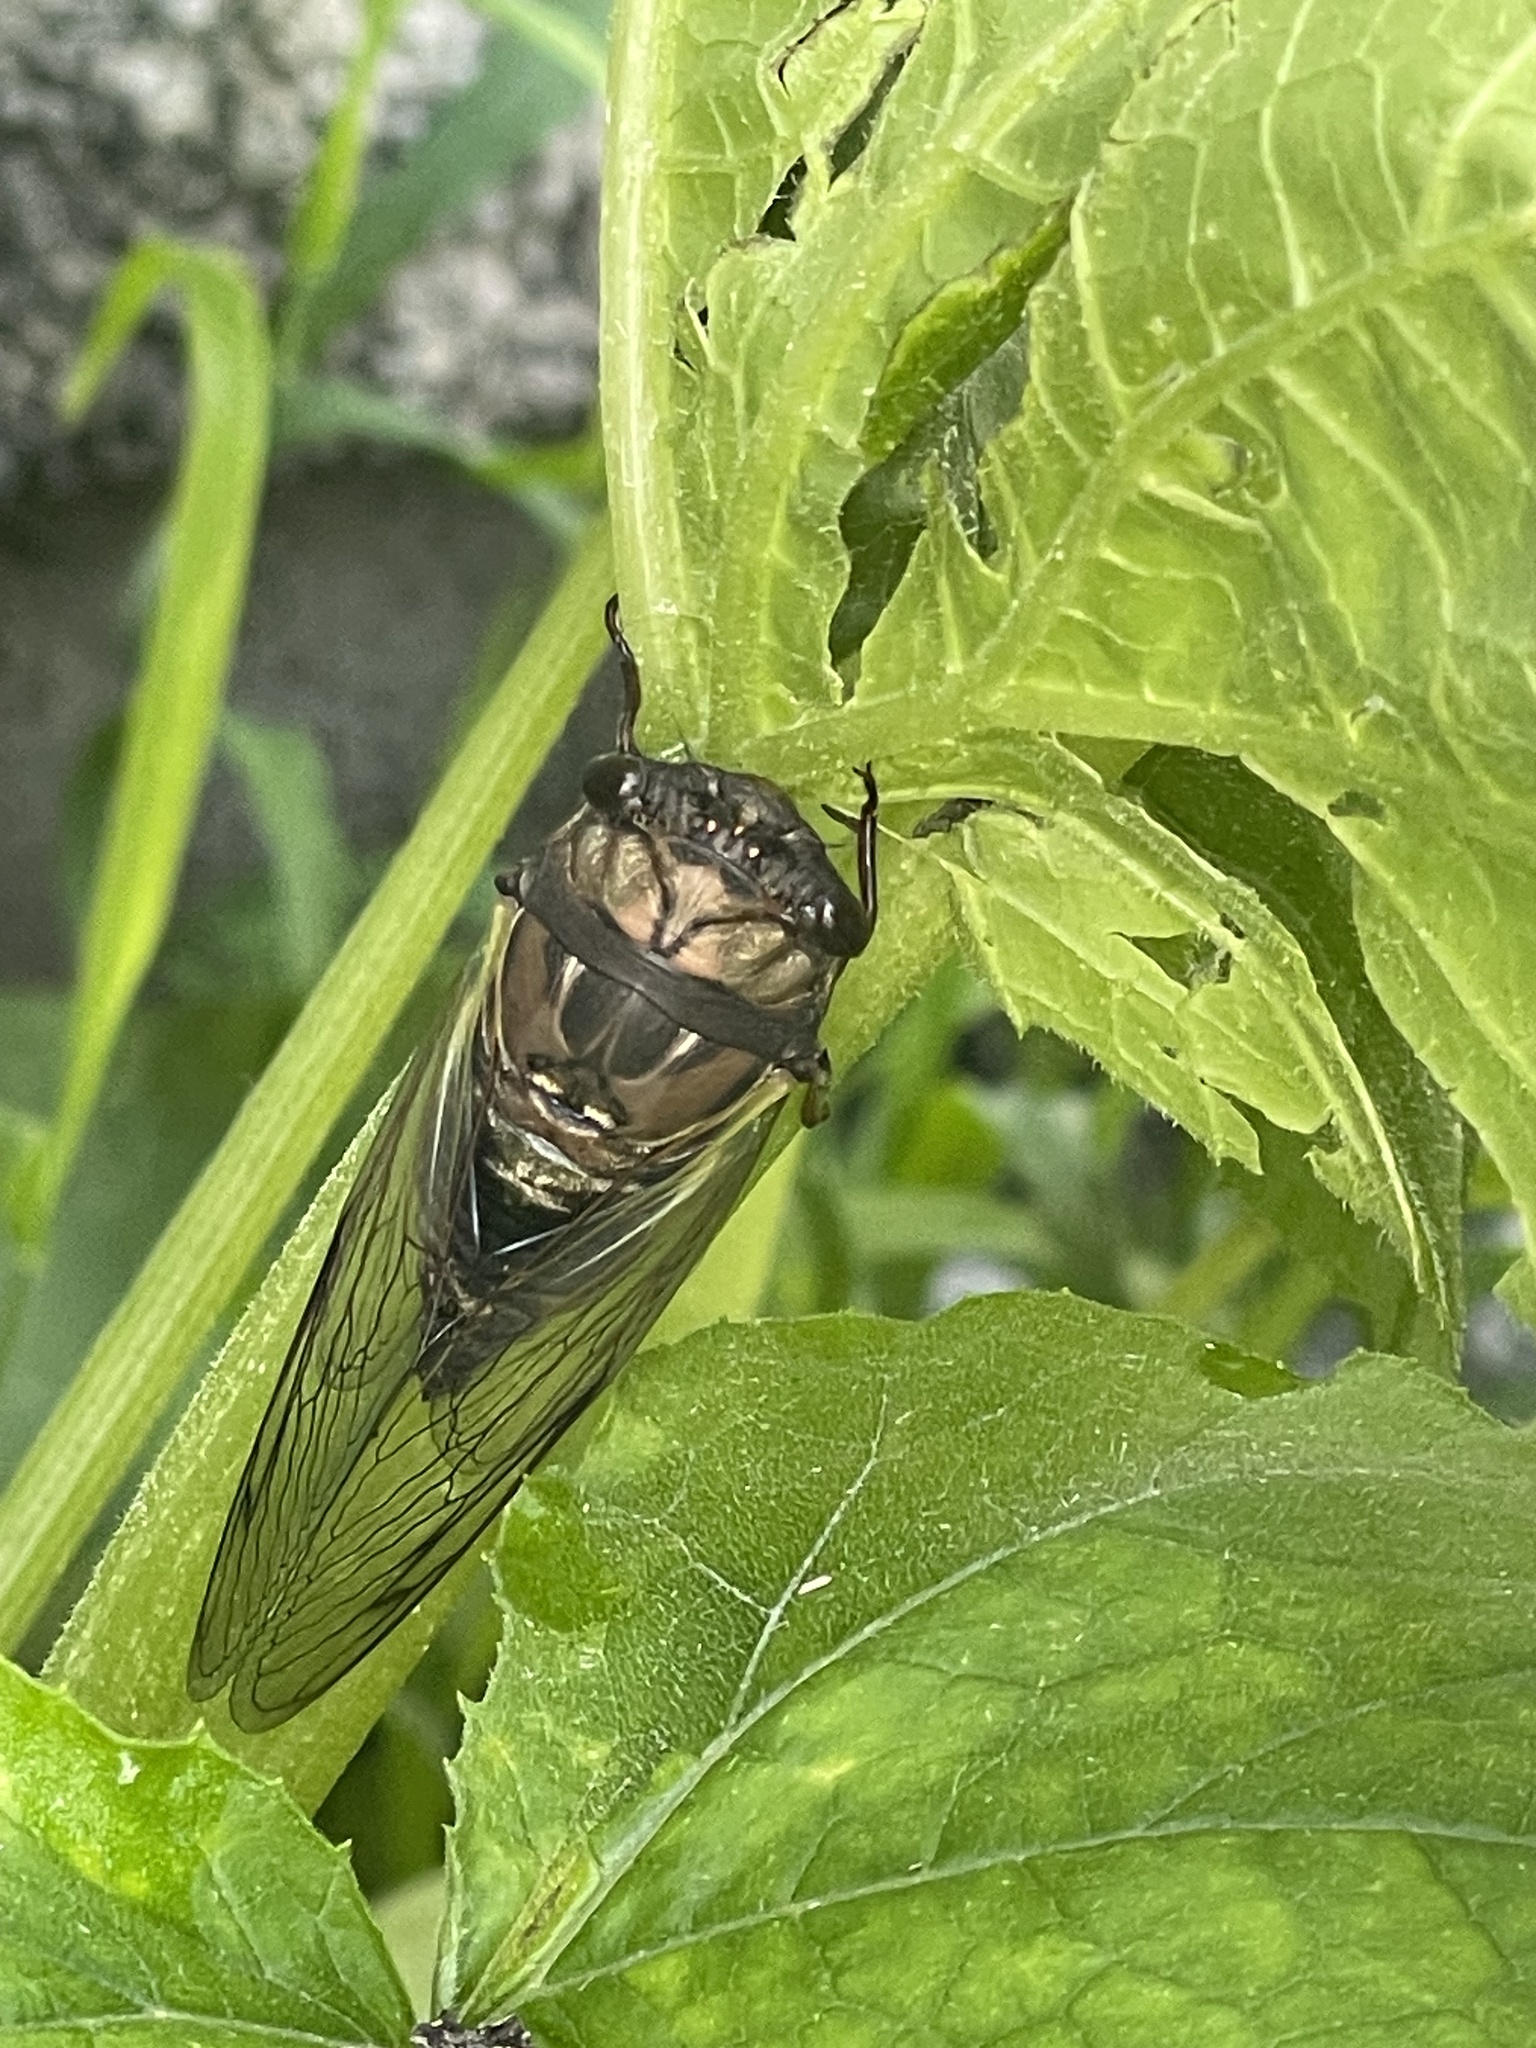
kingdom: Animalia
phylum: Arthropoda
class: Insecta
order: Hemiptera
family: Cicadidae
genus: Neotibicen
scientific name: Neotibicen lyricen
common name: Lyric cicada
